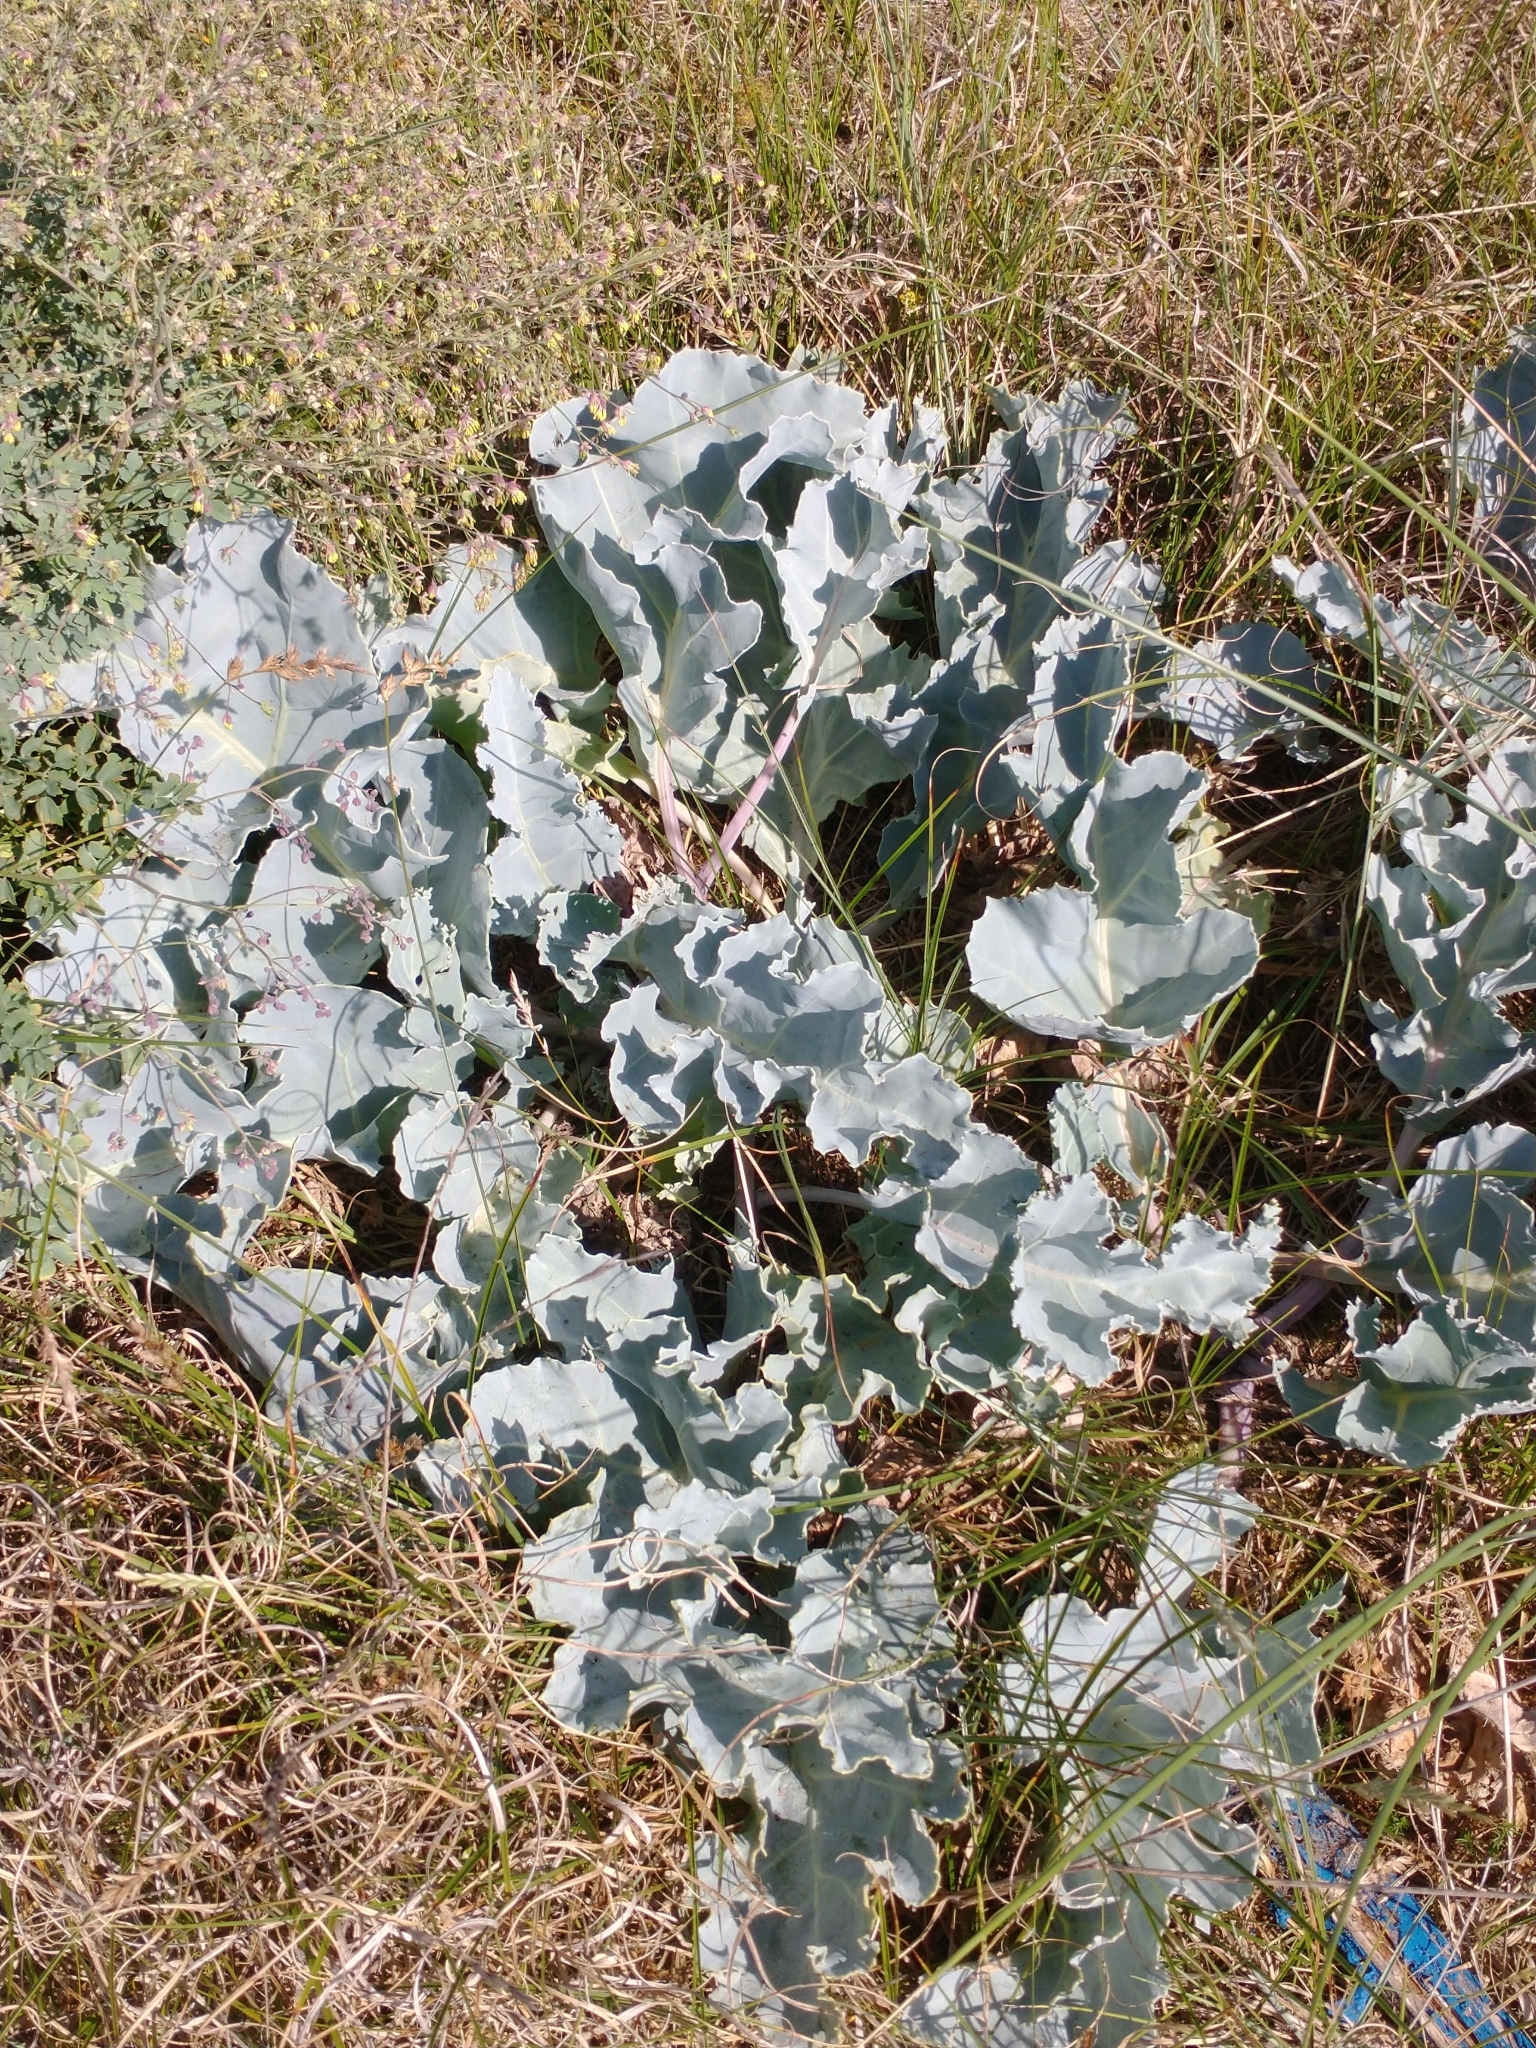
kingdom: Plantae
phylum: Tracheophyta
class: Magnoliopsida
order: Brassicales
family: Brassicaceae
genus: Crambe
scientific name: Crambe maritima
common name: Sea-kale
